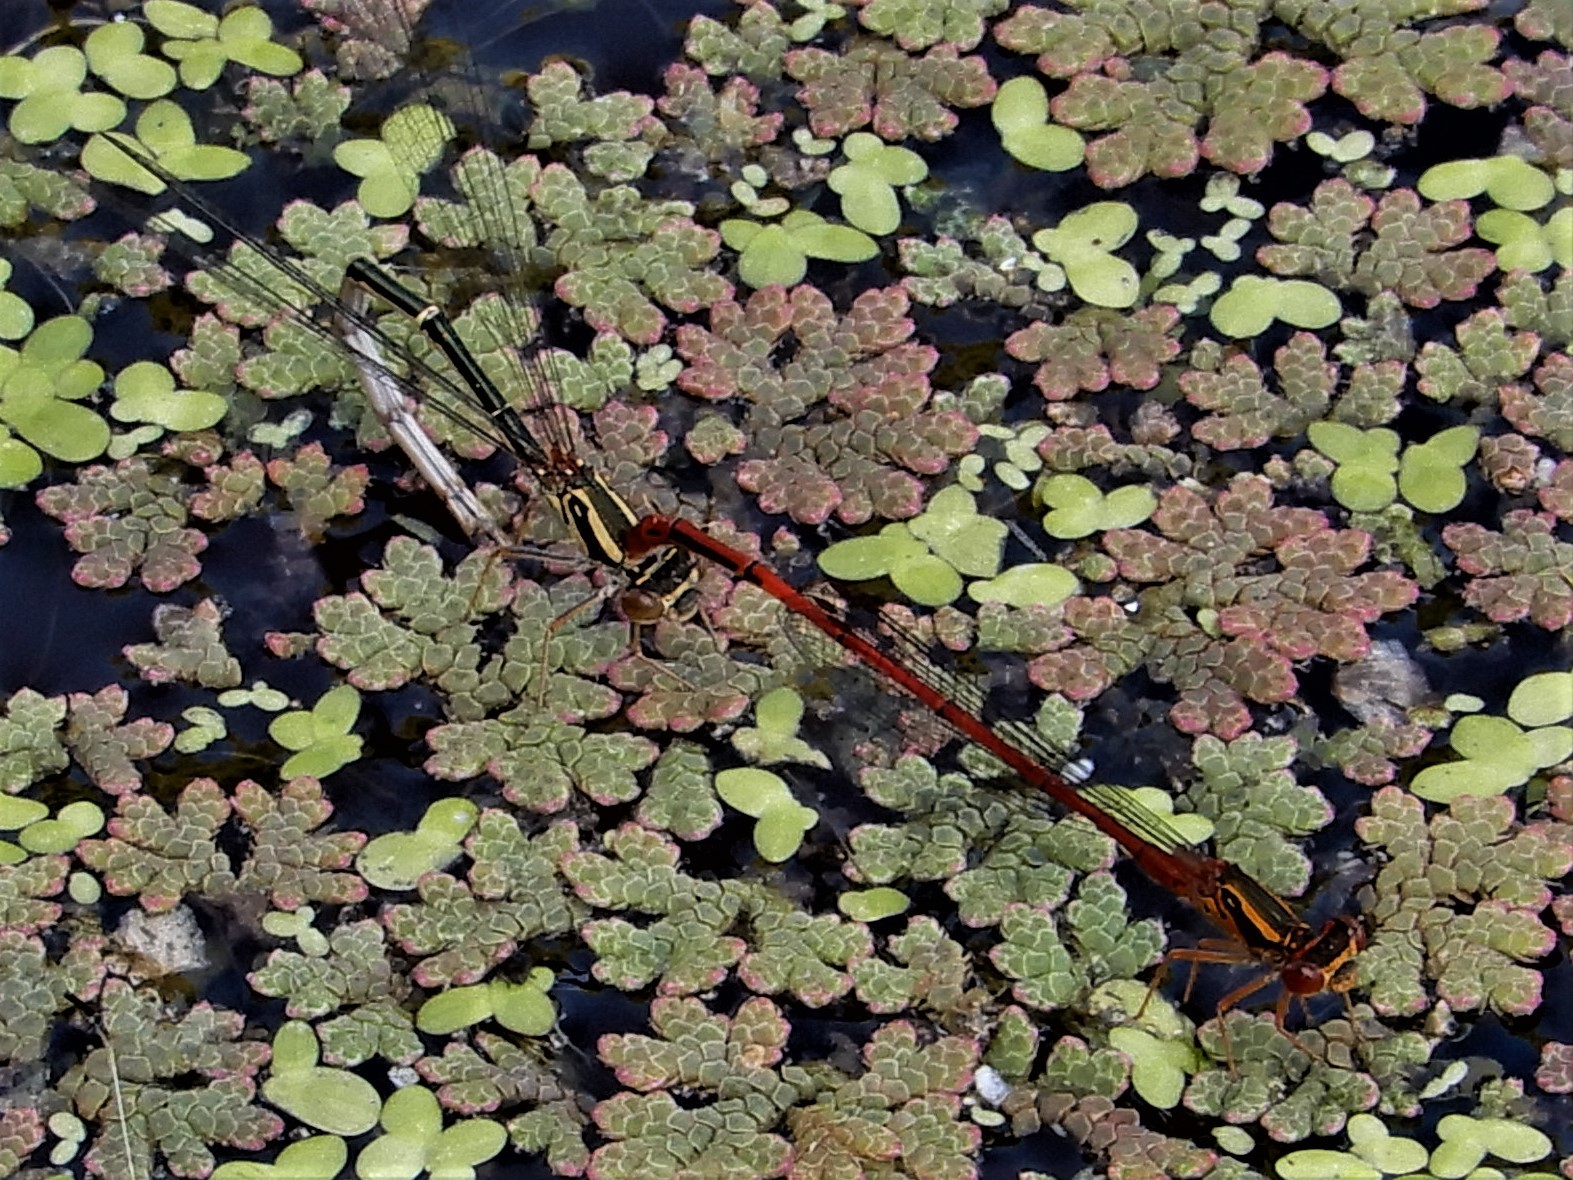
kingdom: Animalia
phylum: Arthropoda
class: Insecta
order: Odonata
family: Coenagrionidae
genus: Xanthocnemis
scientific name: Xanthocnemis zealandica
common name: Common redcoat damselfly
